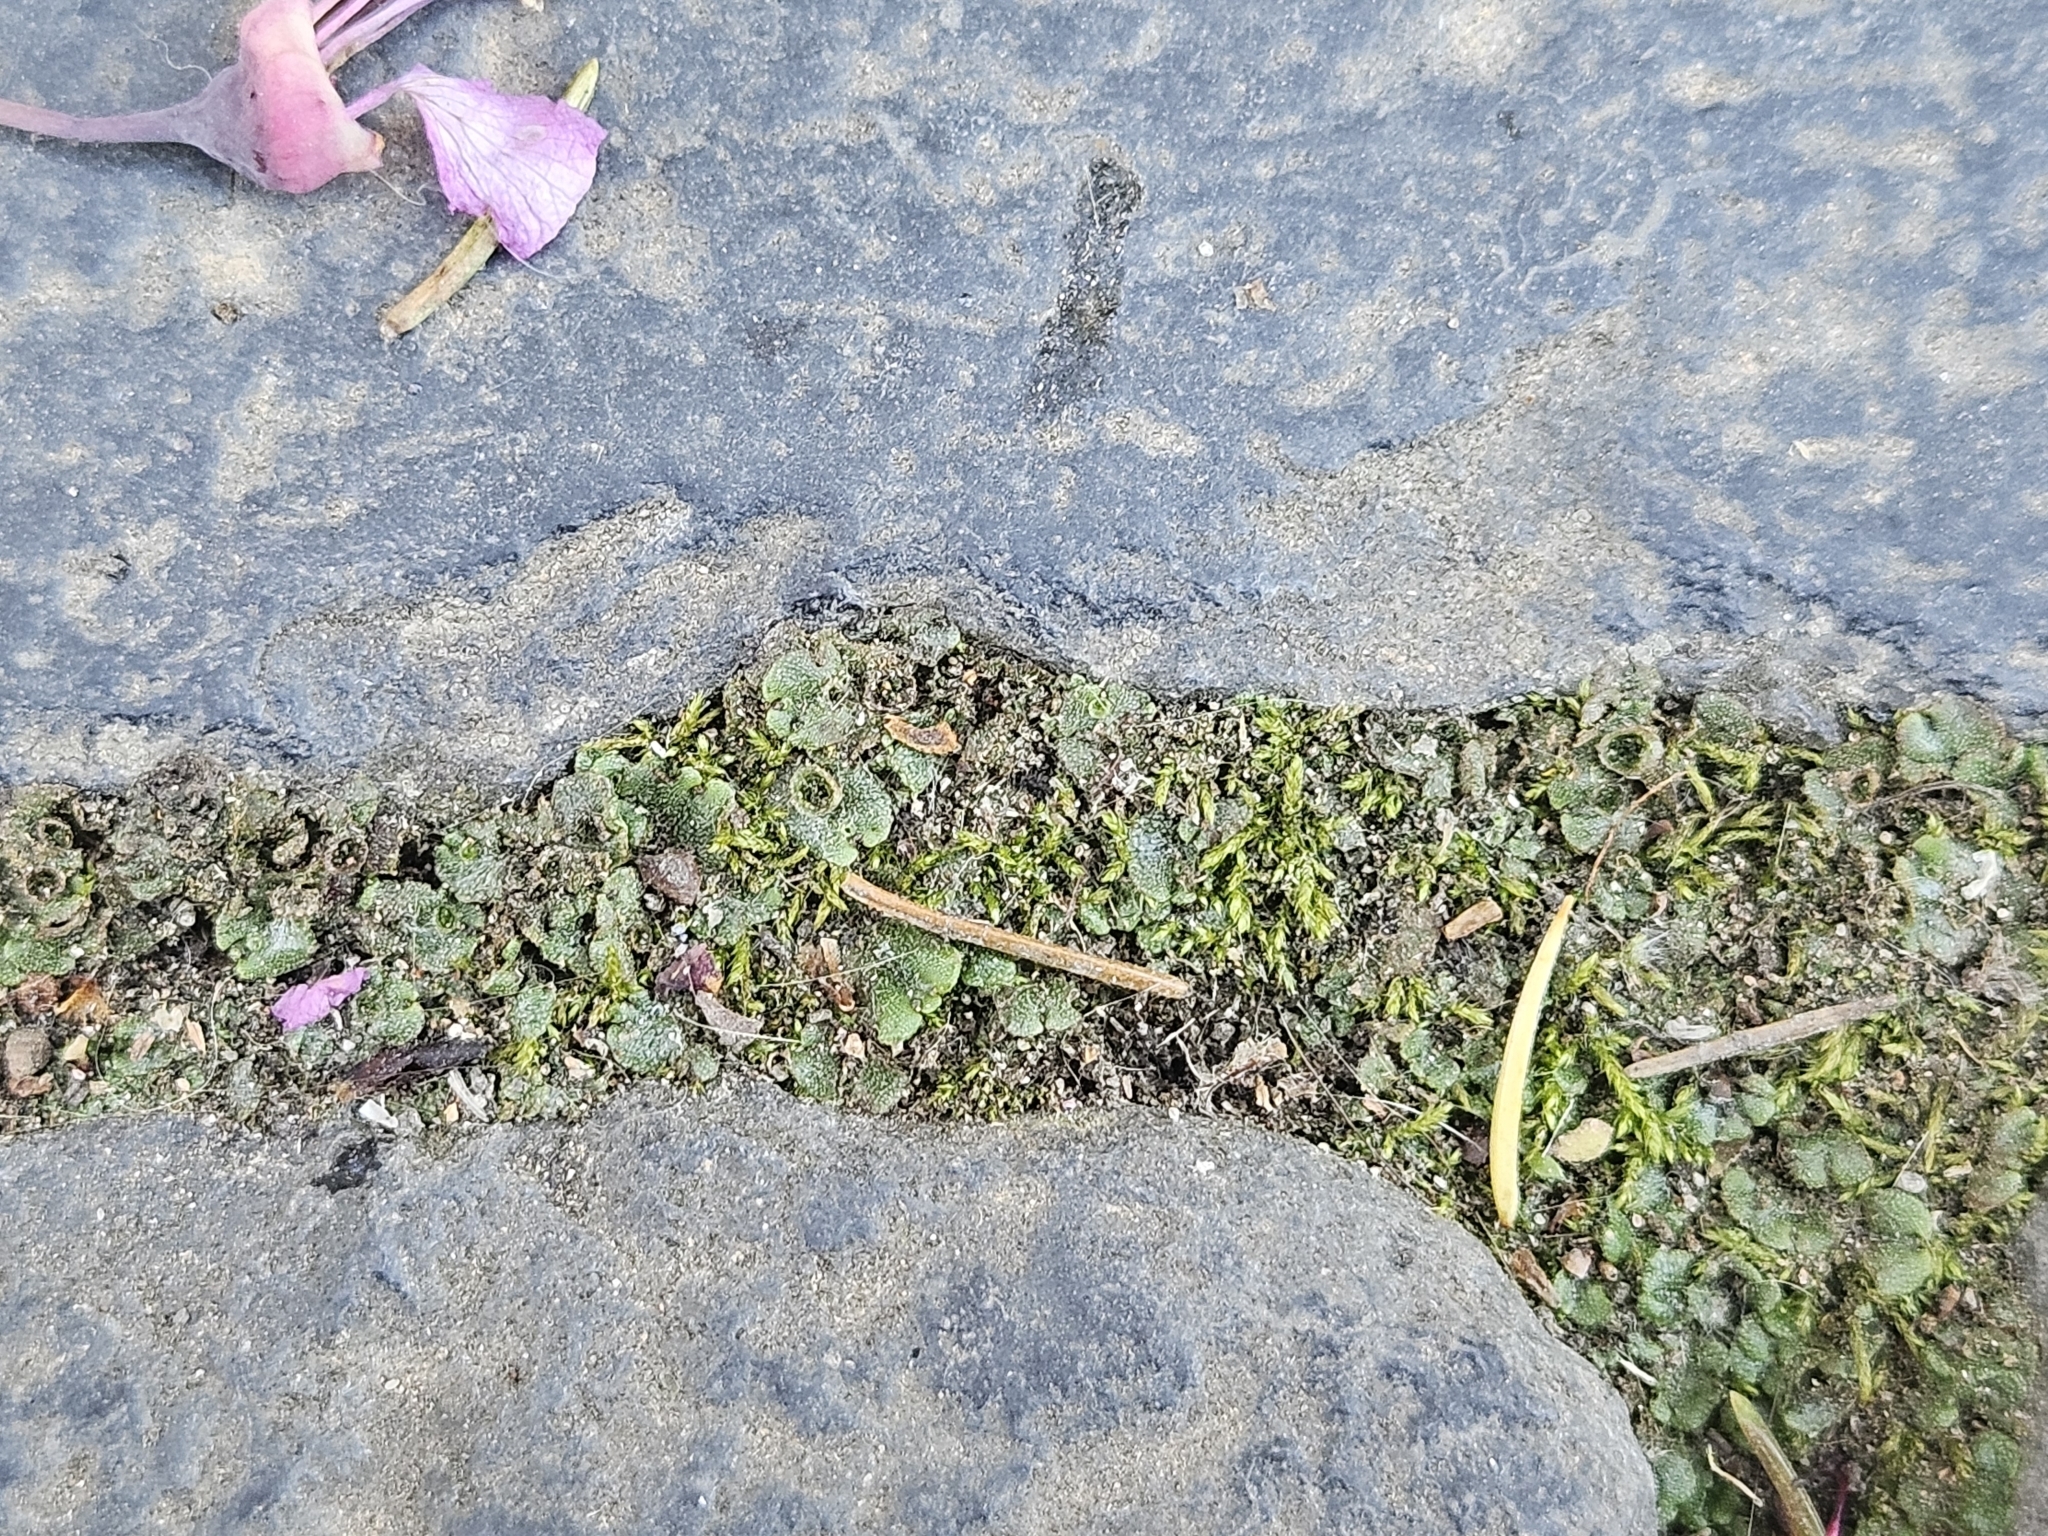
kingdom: Plantae
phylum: Marchantiophyta
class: Marchantiopsida
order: Marchantiales
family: Marchantiaceae
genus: Marchantia
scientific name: Marchantia polymorpha
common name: Common liverwort
